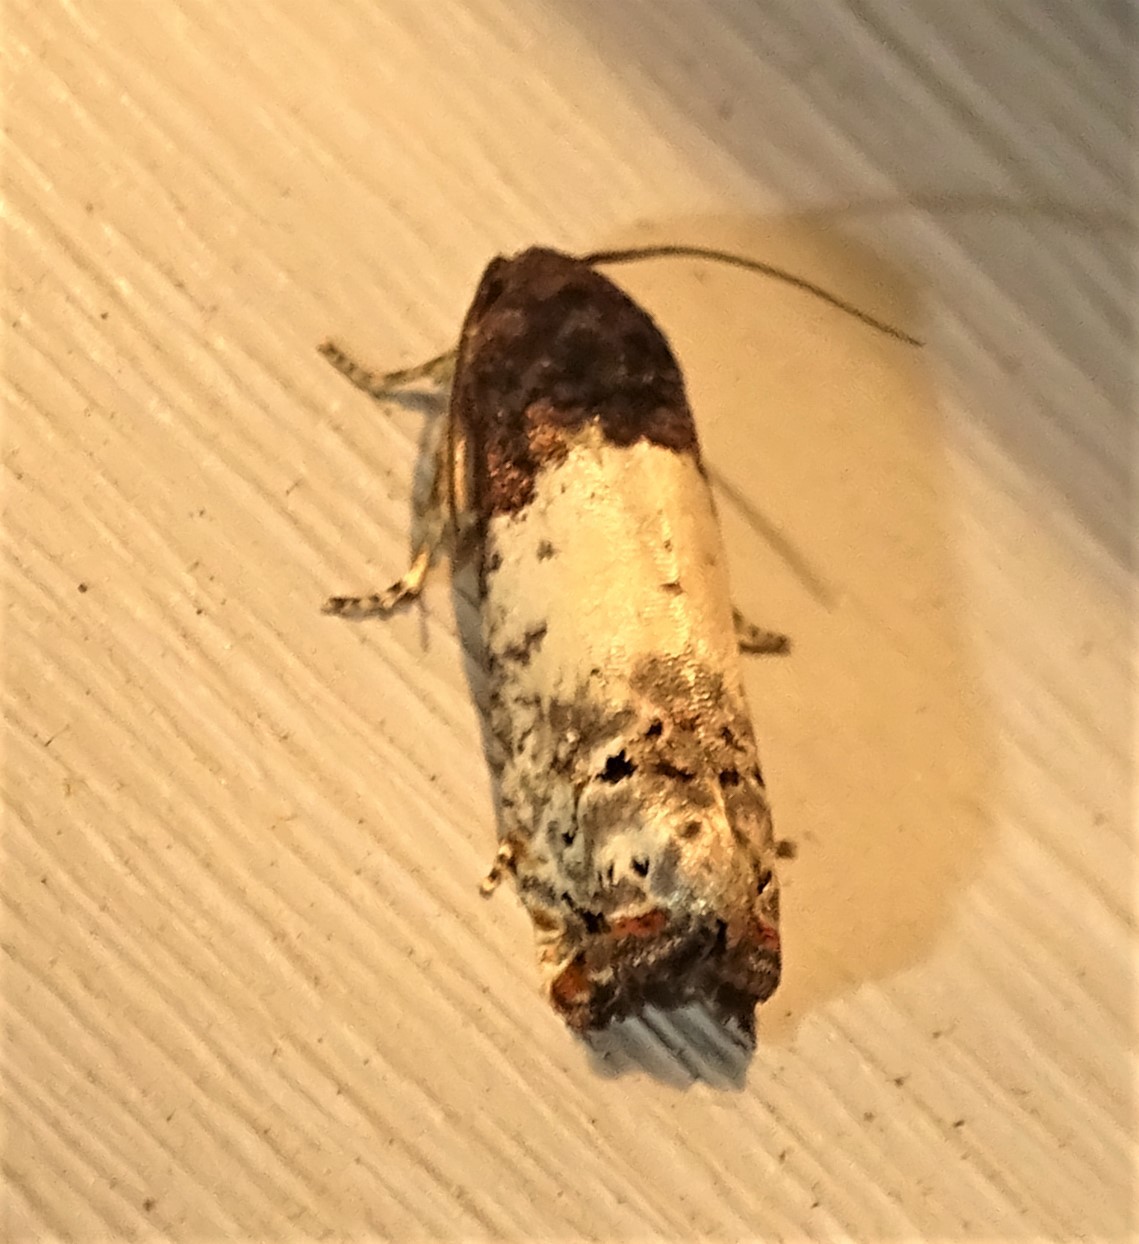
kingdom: Animalia
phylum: Arthropoda
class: Insecta
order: Lepidoptera
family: Tortricidae
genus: Epiblema
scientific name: Epiblema scudderiana
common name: Goldenrod gall moth
